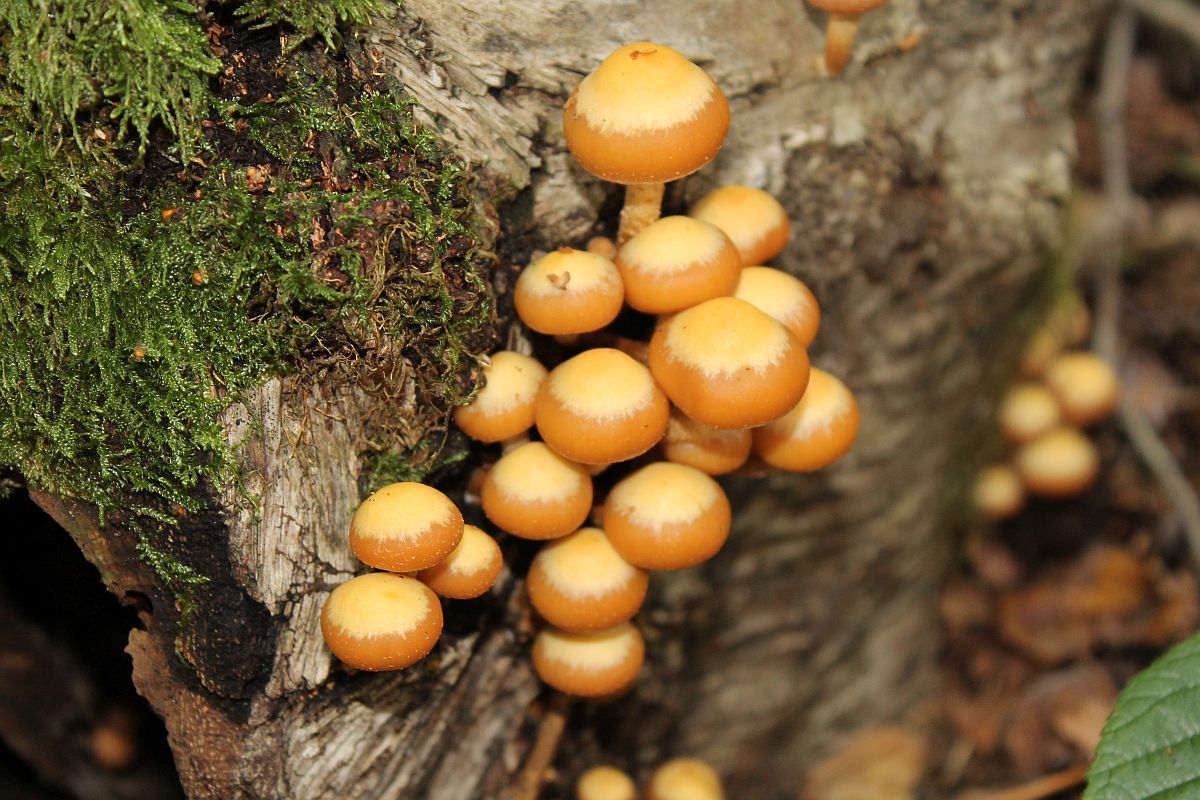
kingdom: Fungi
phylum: Basidiomycota
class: Agaricomycetes
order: Agaricales
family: Strophariaceae
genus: Kuehneromyces
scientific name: Kuehneromyces mutabilis
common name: Sheathed woodtuft
